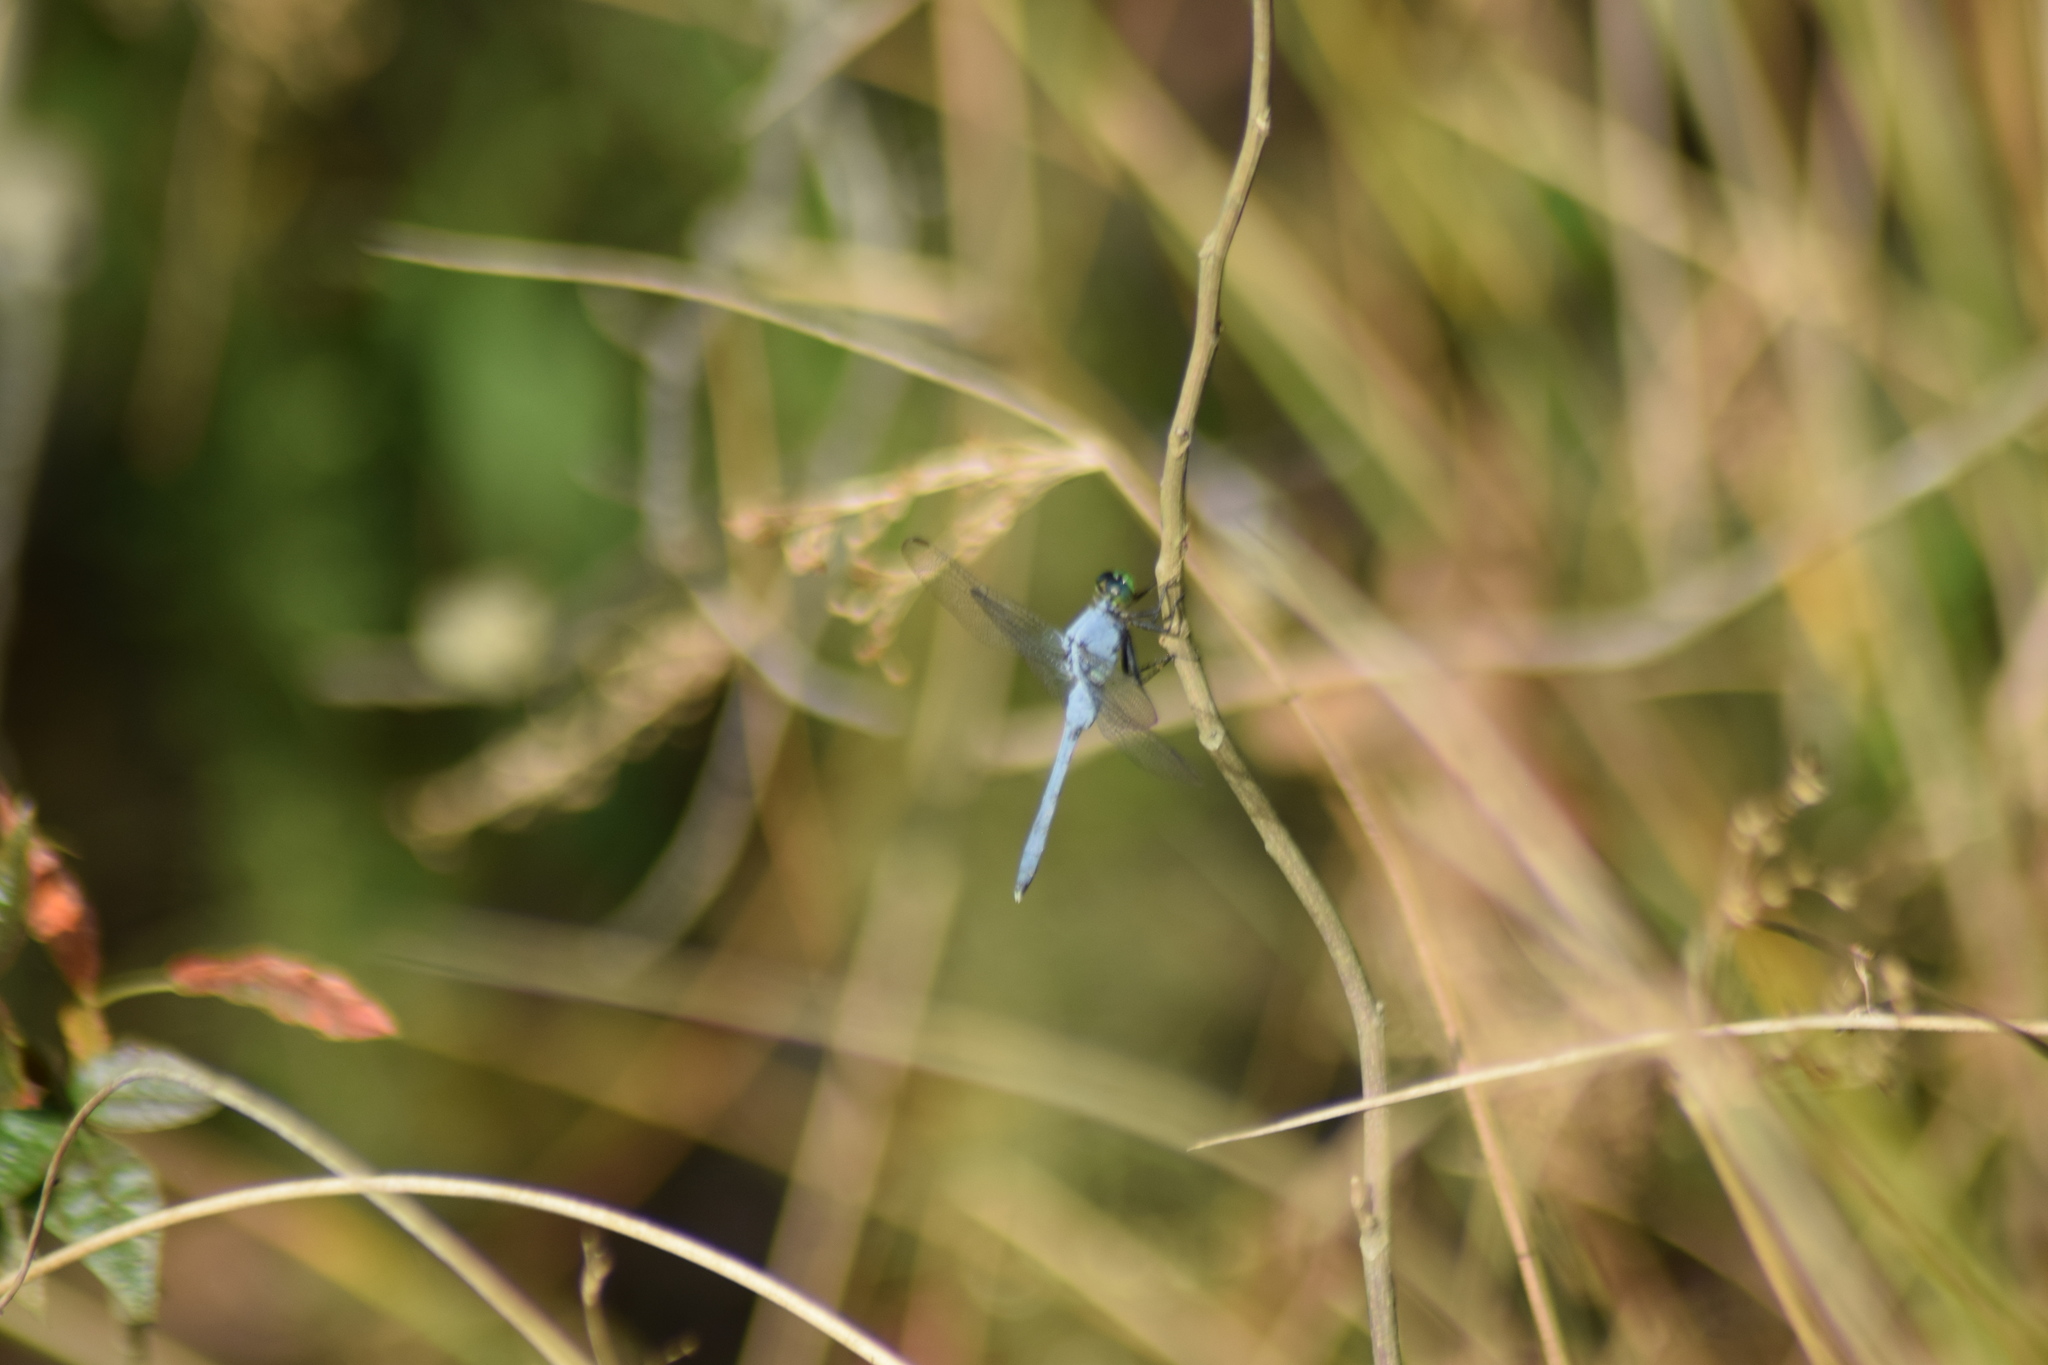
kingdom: Animalia
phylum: Arthropoda
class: Insecta
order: Odonata
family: Libellulidae
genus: Erythemis
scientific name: Erythemis simplicicollis
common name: Eastern pondhawk
